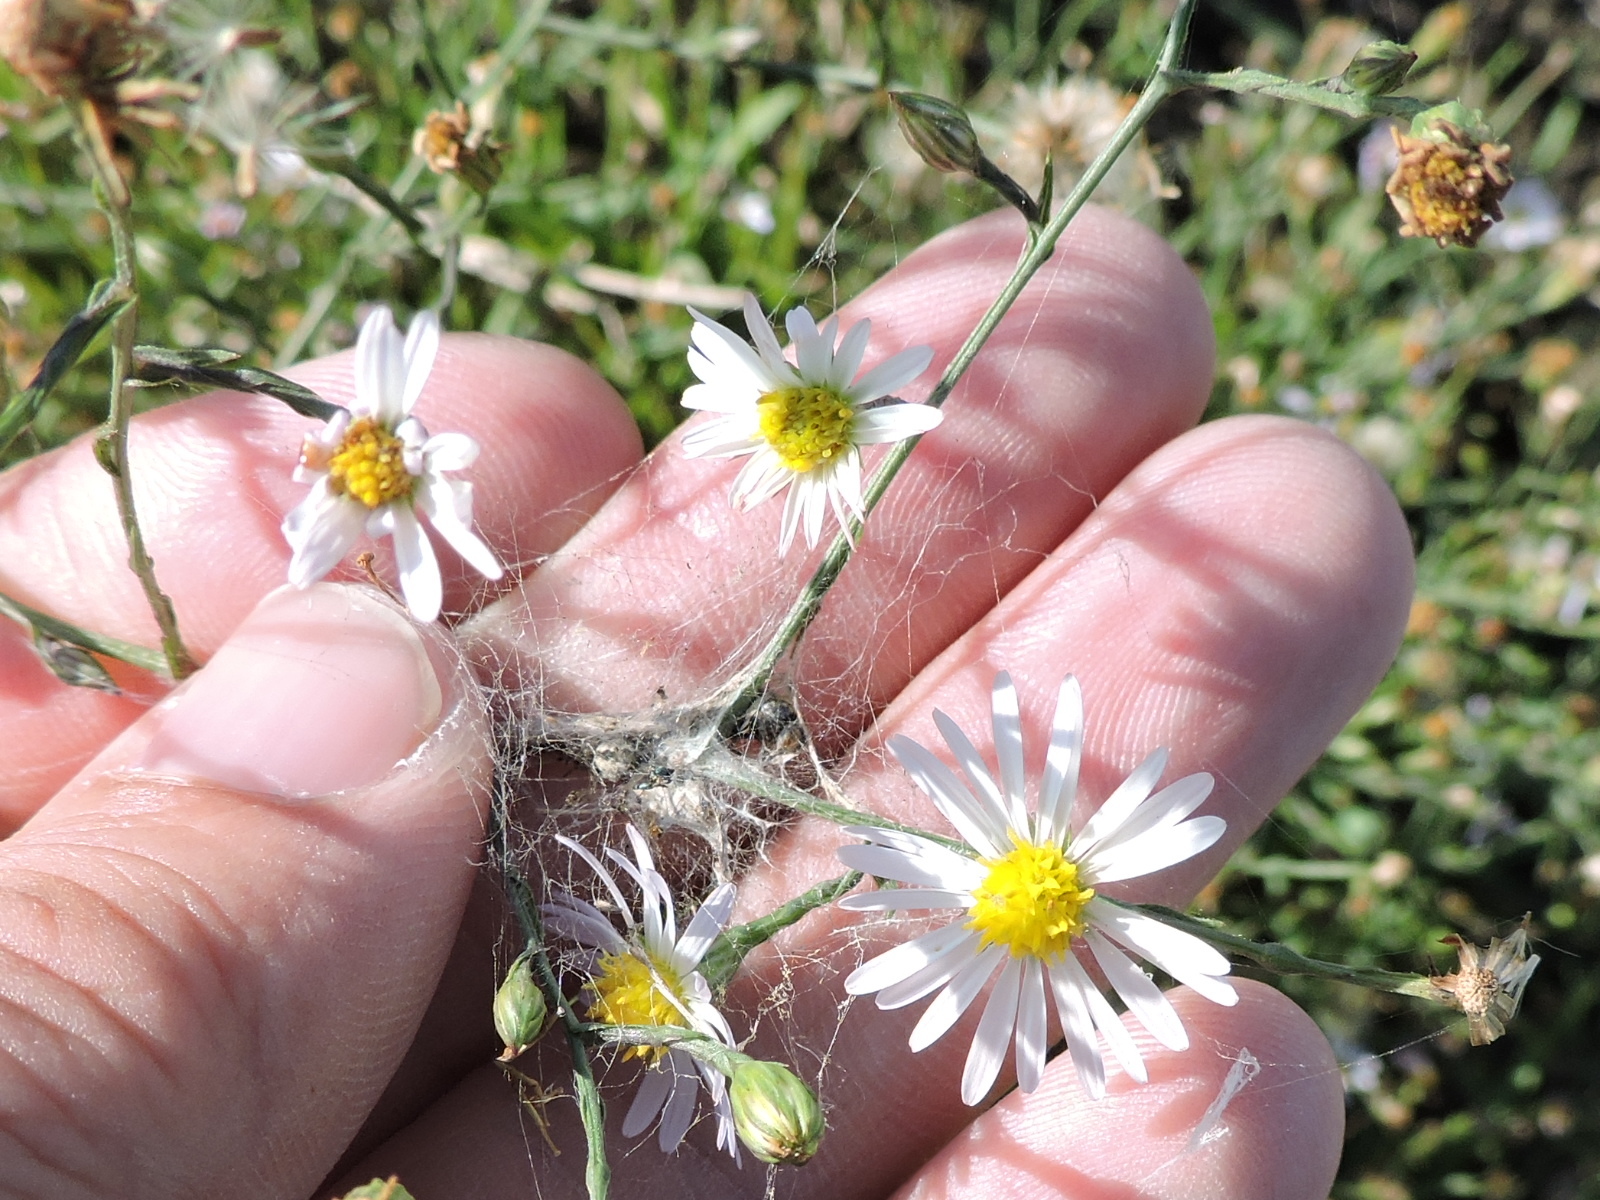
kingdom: Plantae
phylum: Tracheophyta
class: Magnoliopsida
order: Asterales
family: Asteraceae
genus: Symphyotrichum
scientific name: Symphyotrichum divaricatum
